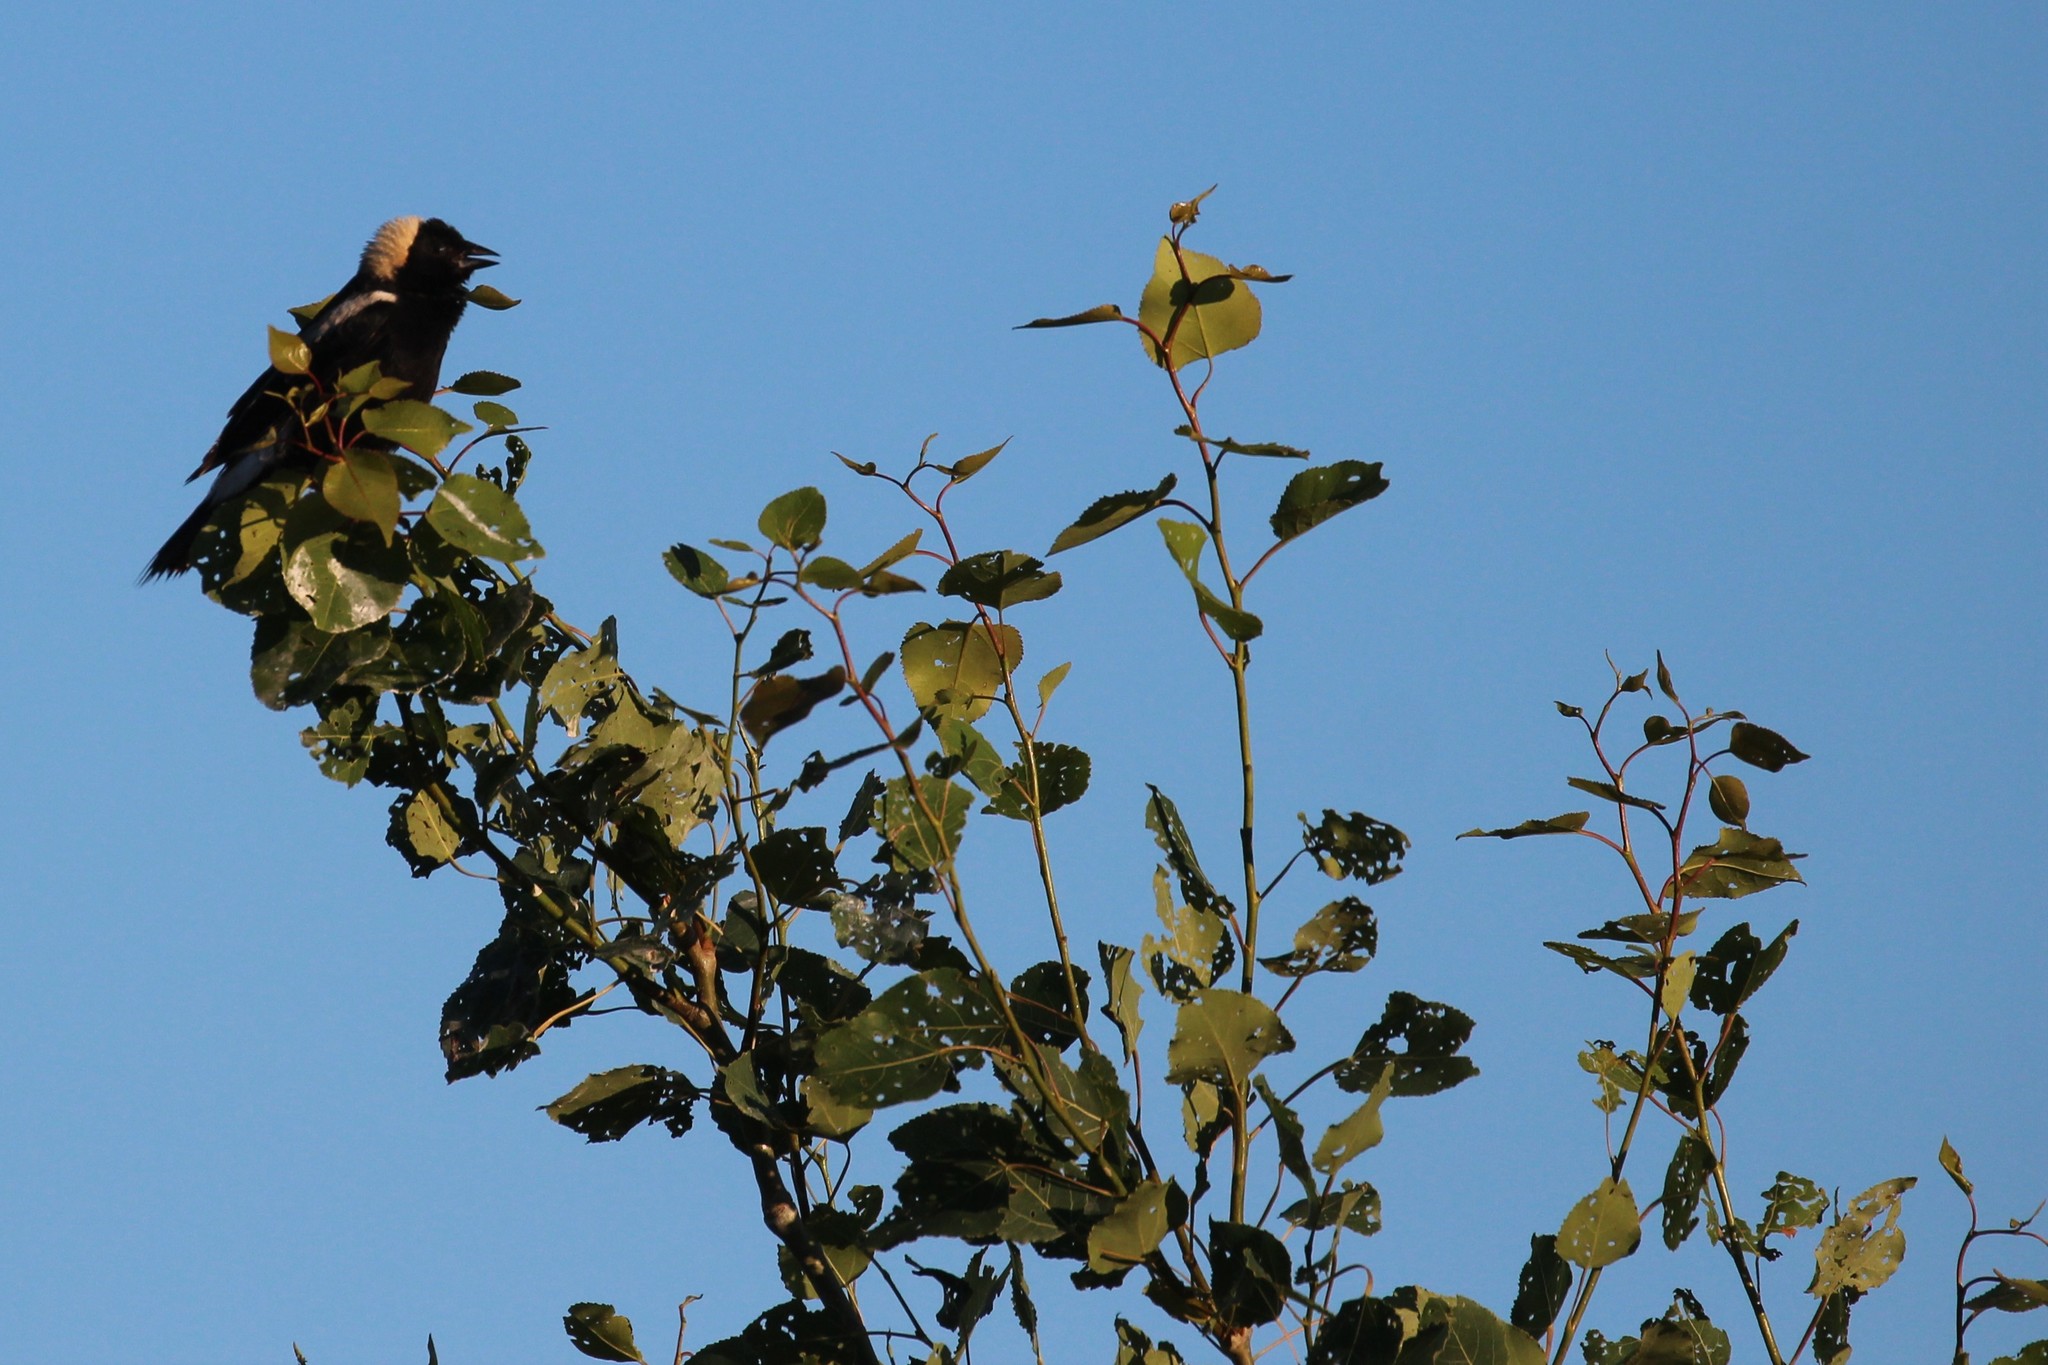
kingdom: Animalia
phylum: Chordata
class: Aves
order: Passeriformes
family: Icteridae
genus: Dolichonyx
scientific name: Dolichonyx oryzivorus
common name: Bobolink
